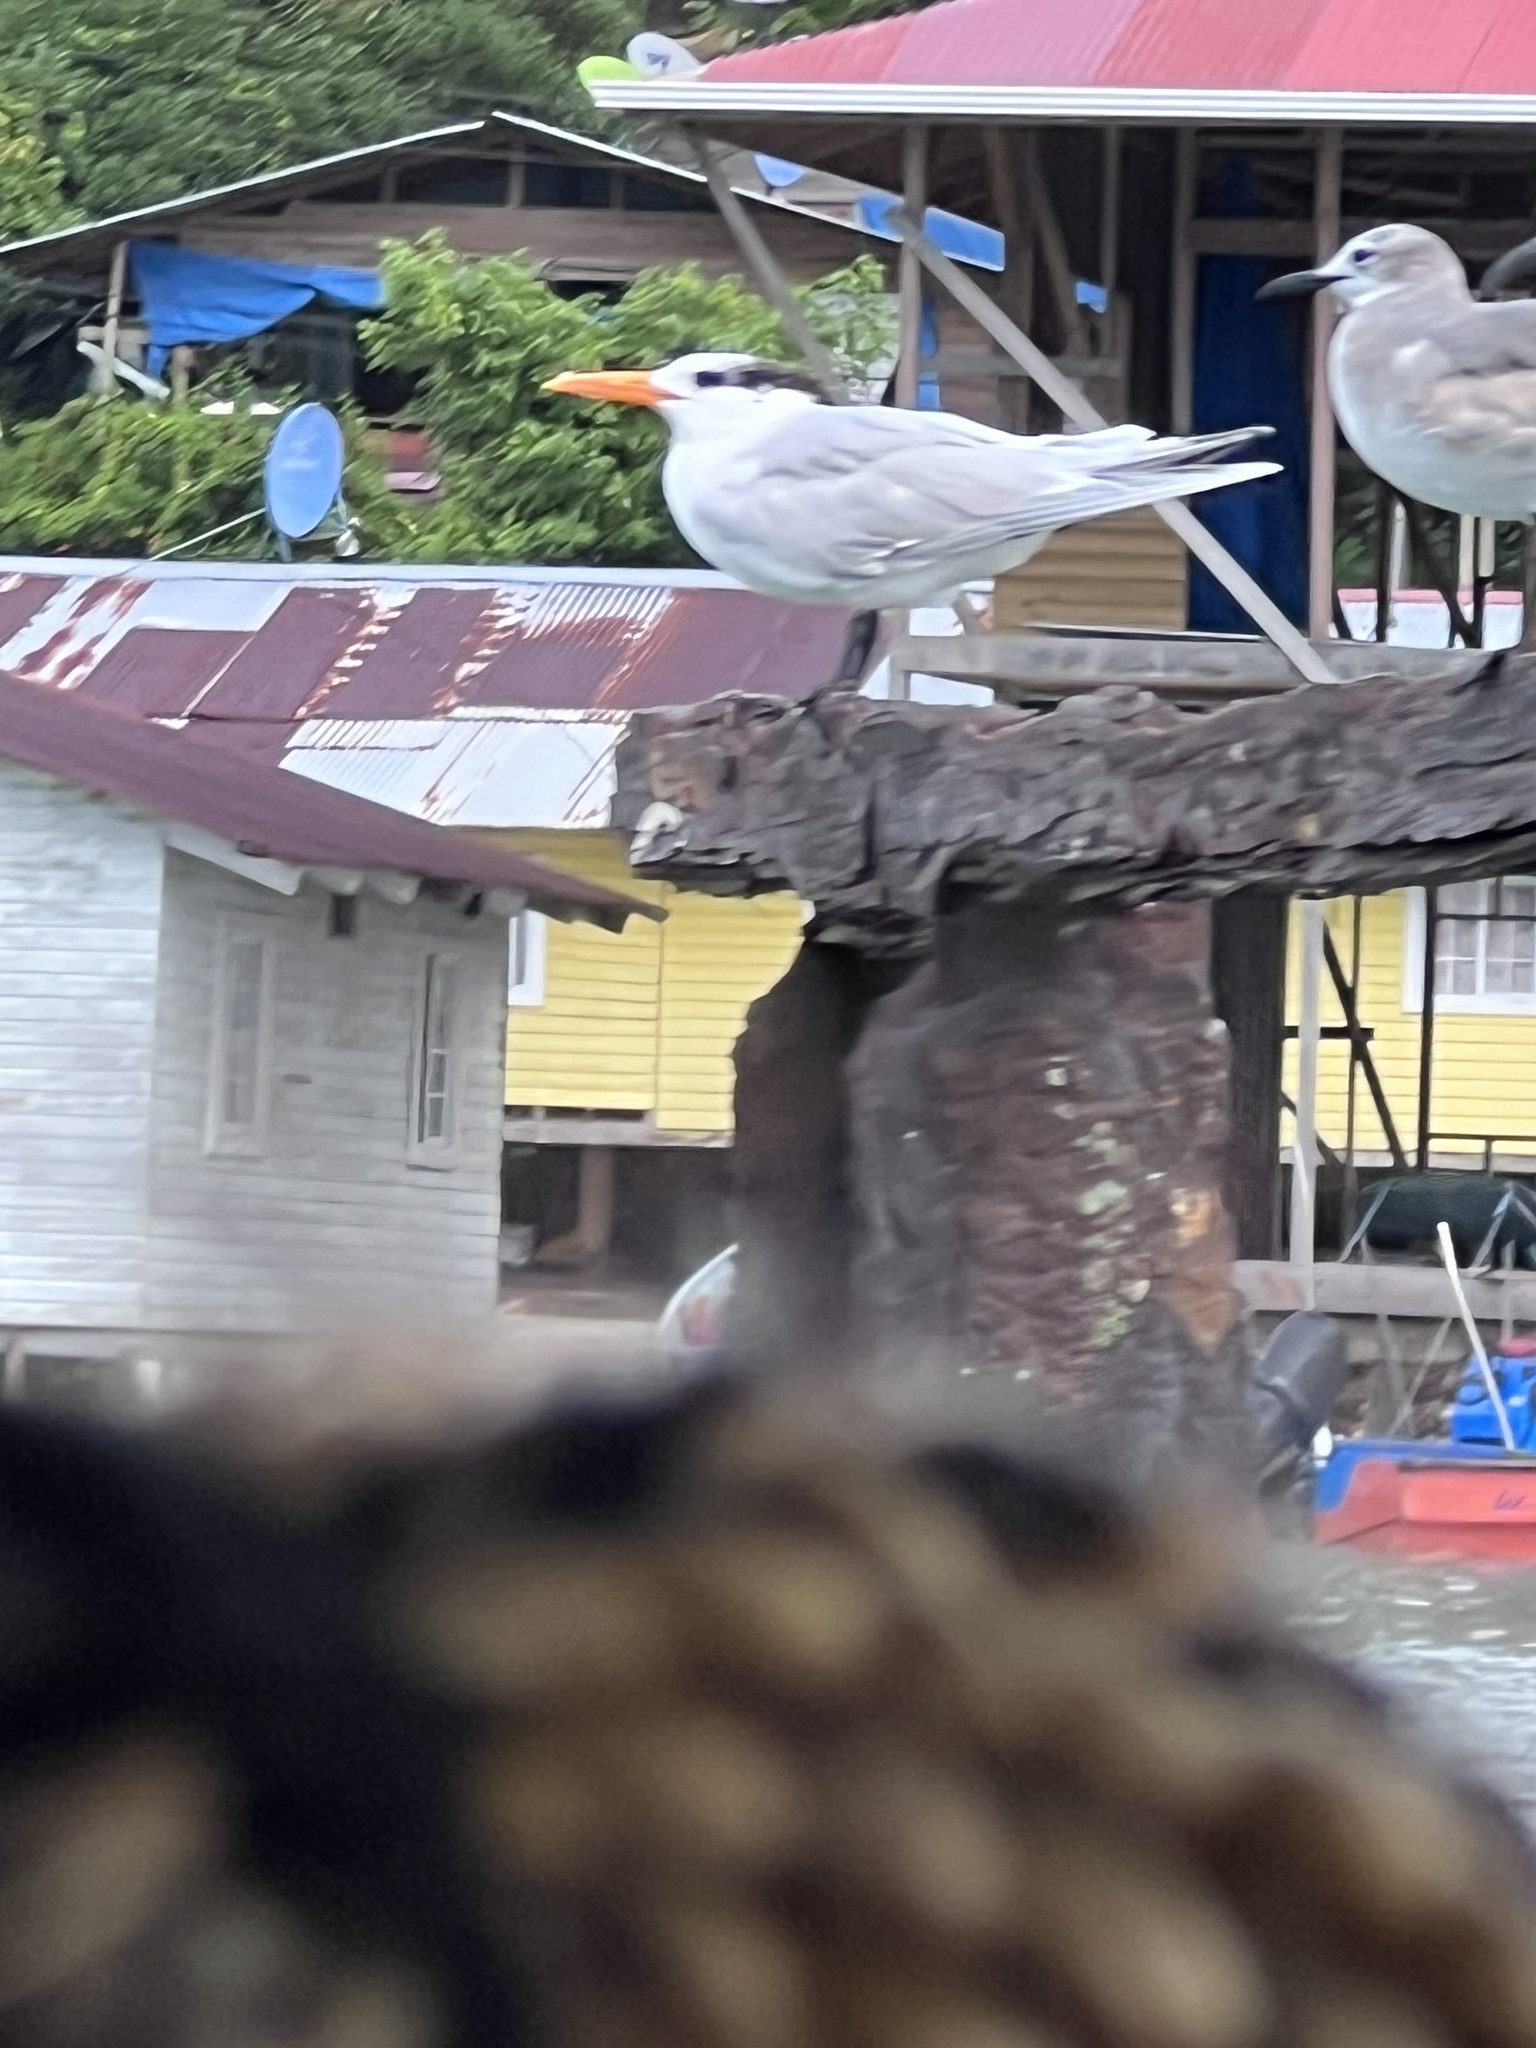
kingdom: Animalia
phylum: Chordata
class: Aves
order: Charadriiformes
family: Laridae
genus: Thalasseus
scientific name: Thalasseus maximus
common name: Royal tern
